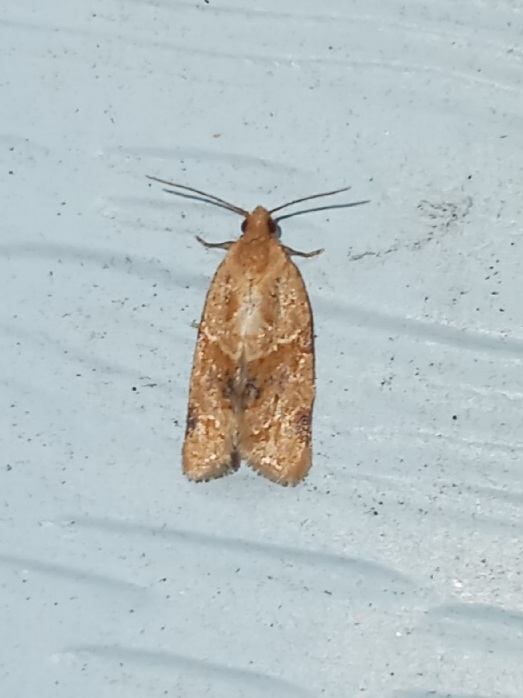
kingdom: Animalia
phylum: Arthropoda
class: Insecta
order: Lepidoptera
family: Tortricidae
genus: Clepsis
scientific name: Clepsis peritana
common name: Garden tortrix
